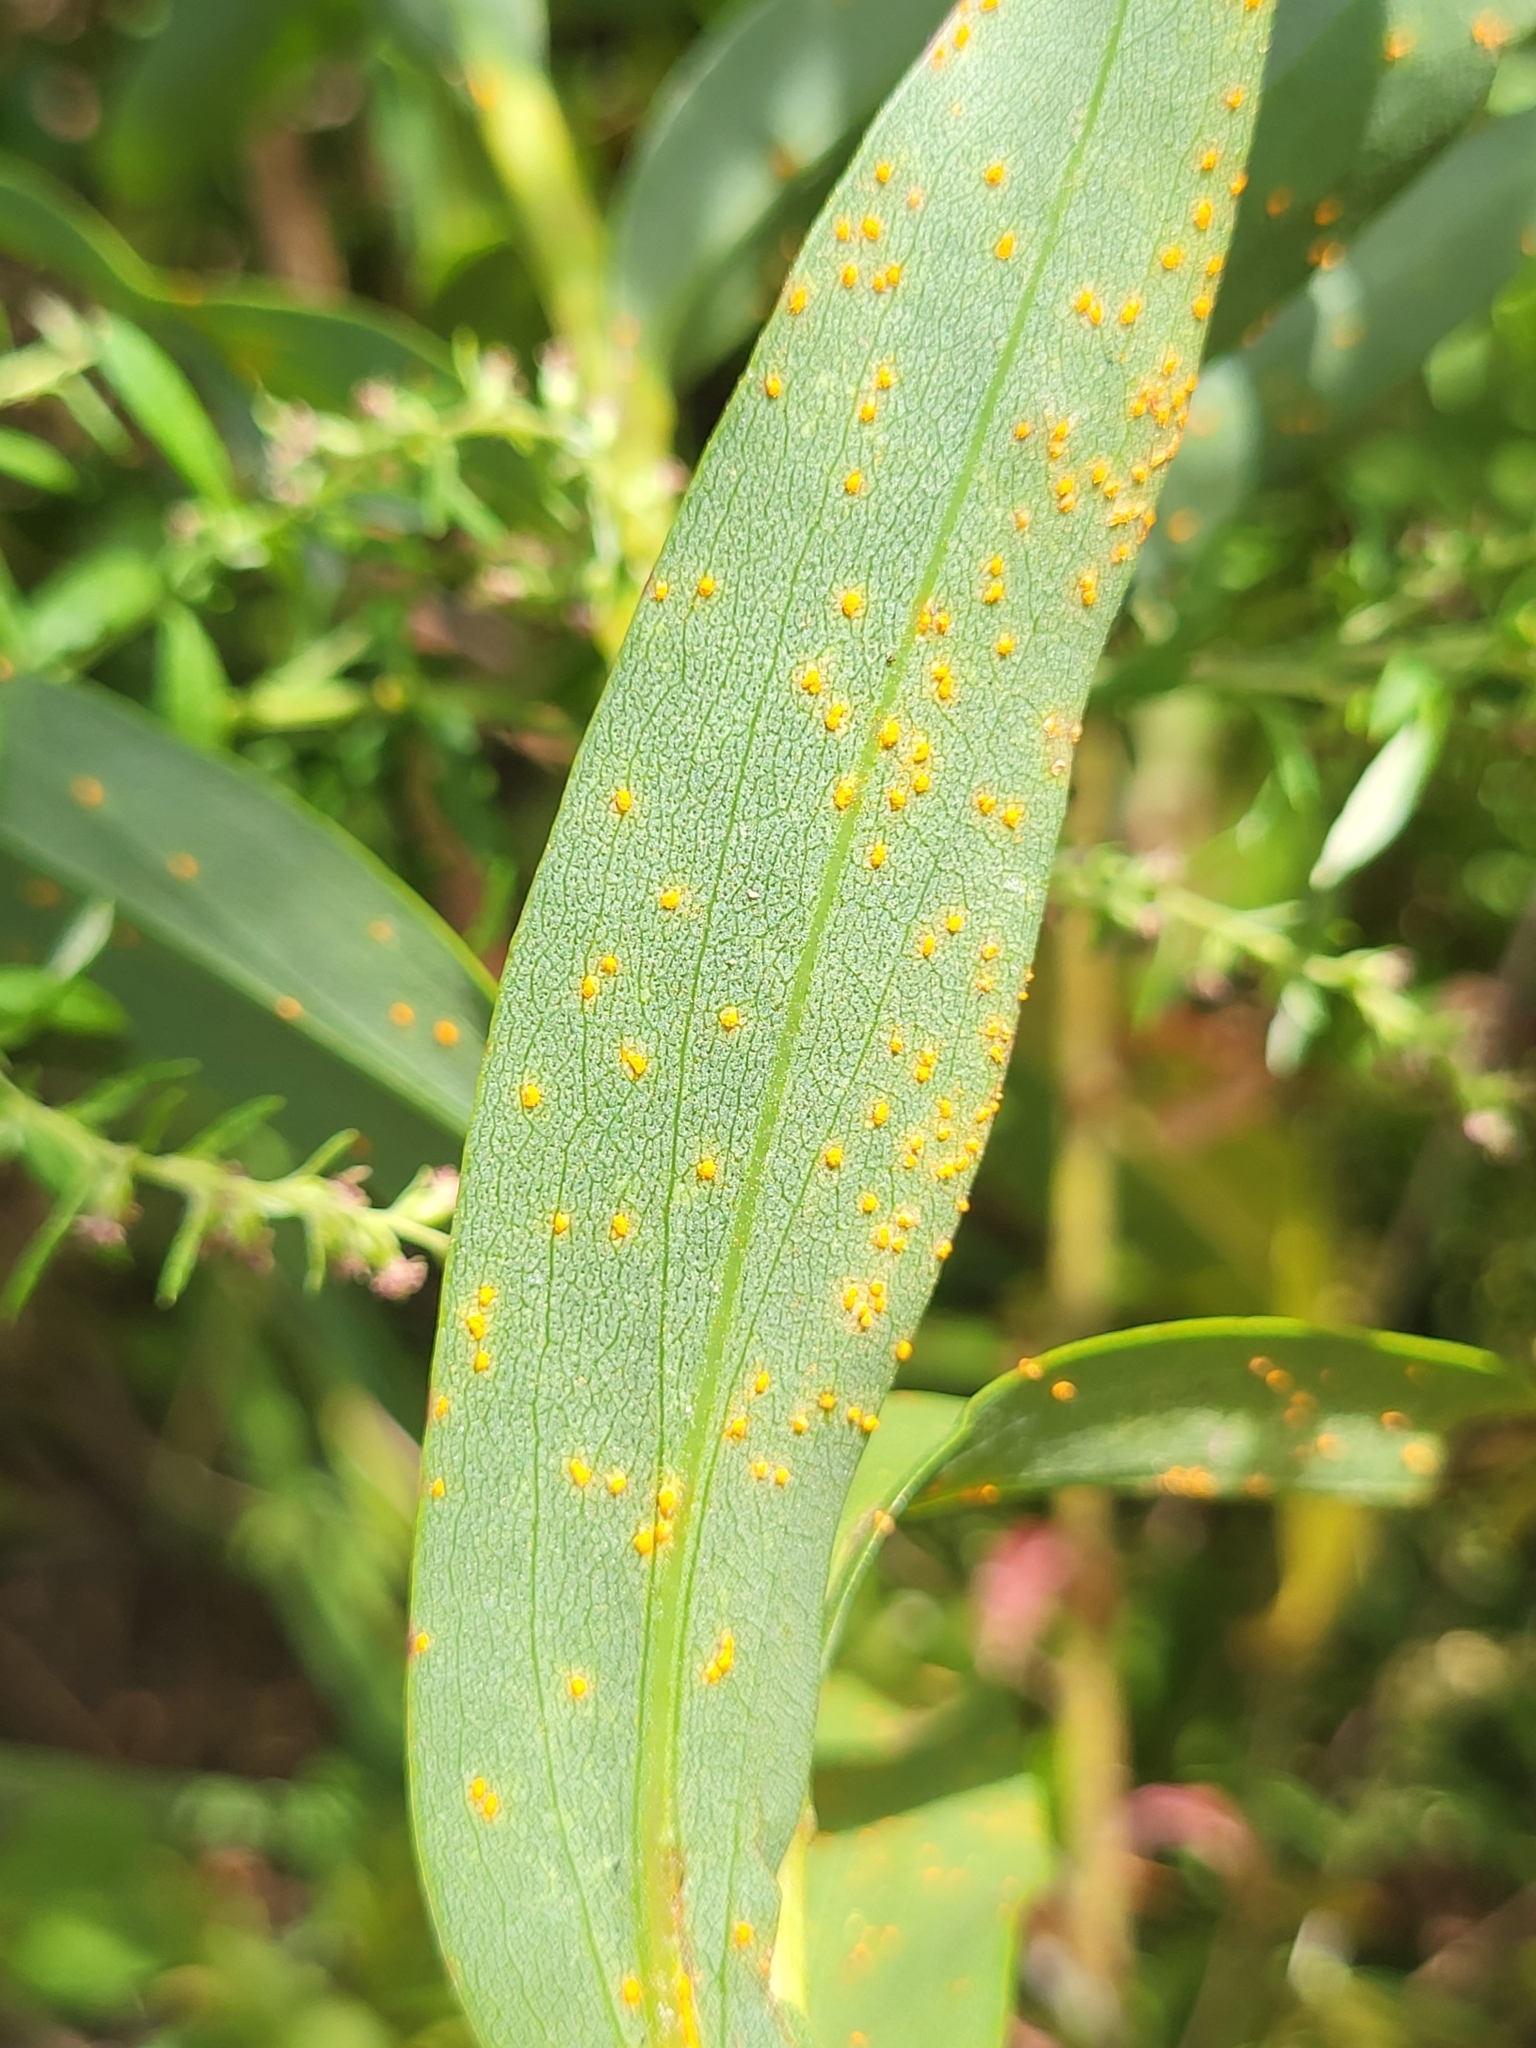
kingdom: Fungi
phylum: Basidiomycota
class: Pucciniomycetes
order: Pucciniales
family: Coleosporiaceae
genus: Coleosporium
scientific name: Coleosporium asterum
